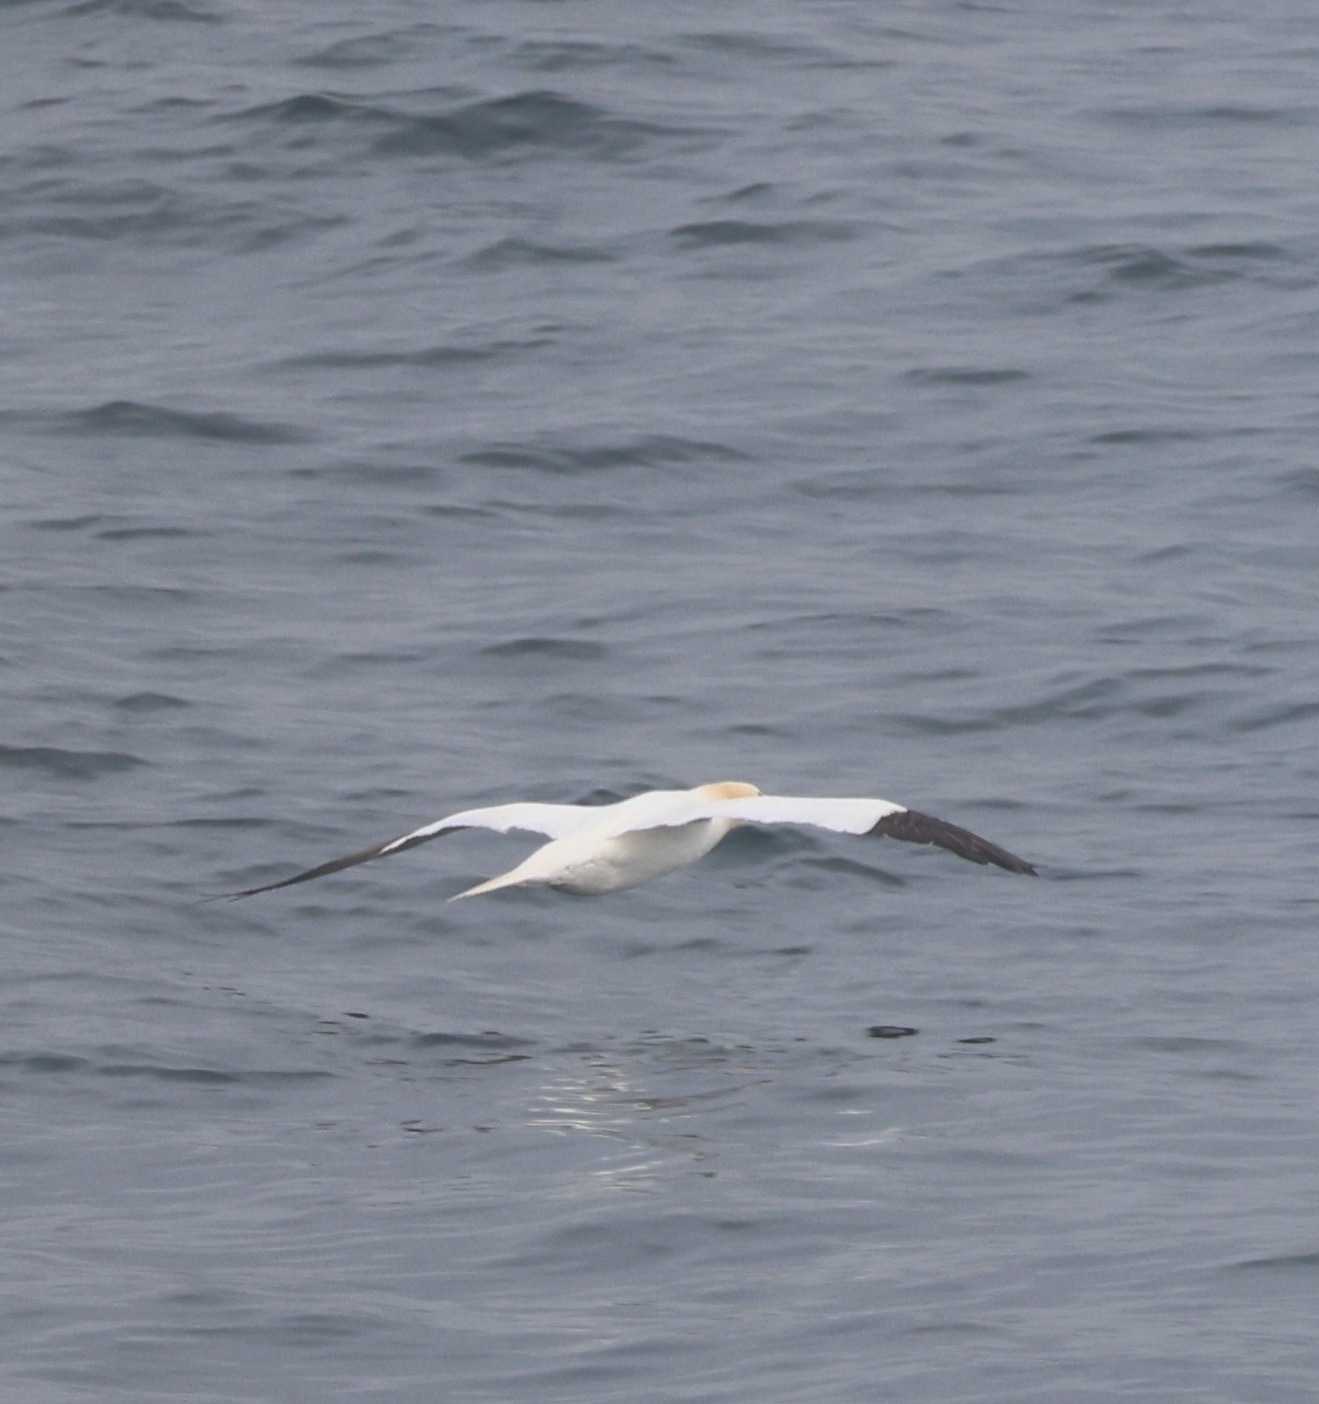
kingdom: Animalia
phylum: Chordata
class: Aves
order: Suliformes
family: Sulidae
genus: Morus
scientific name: Morus bassanus
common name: Northern gannet
